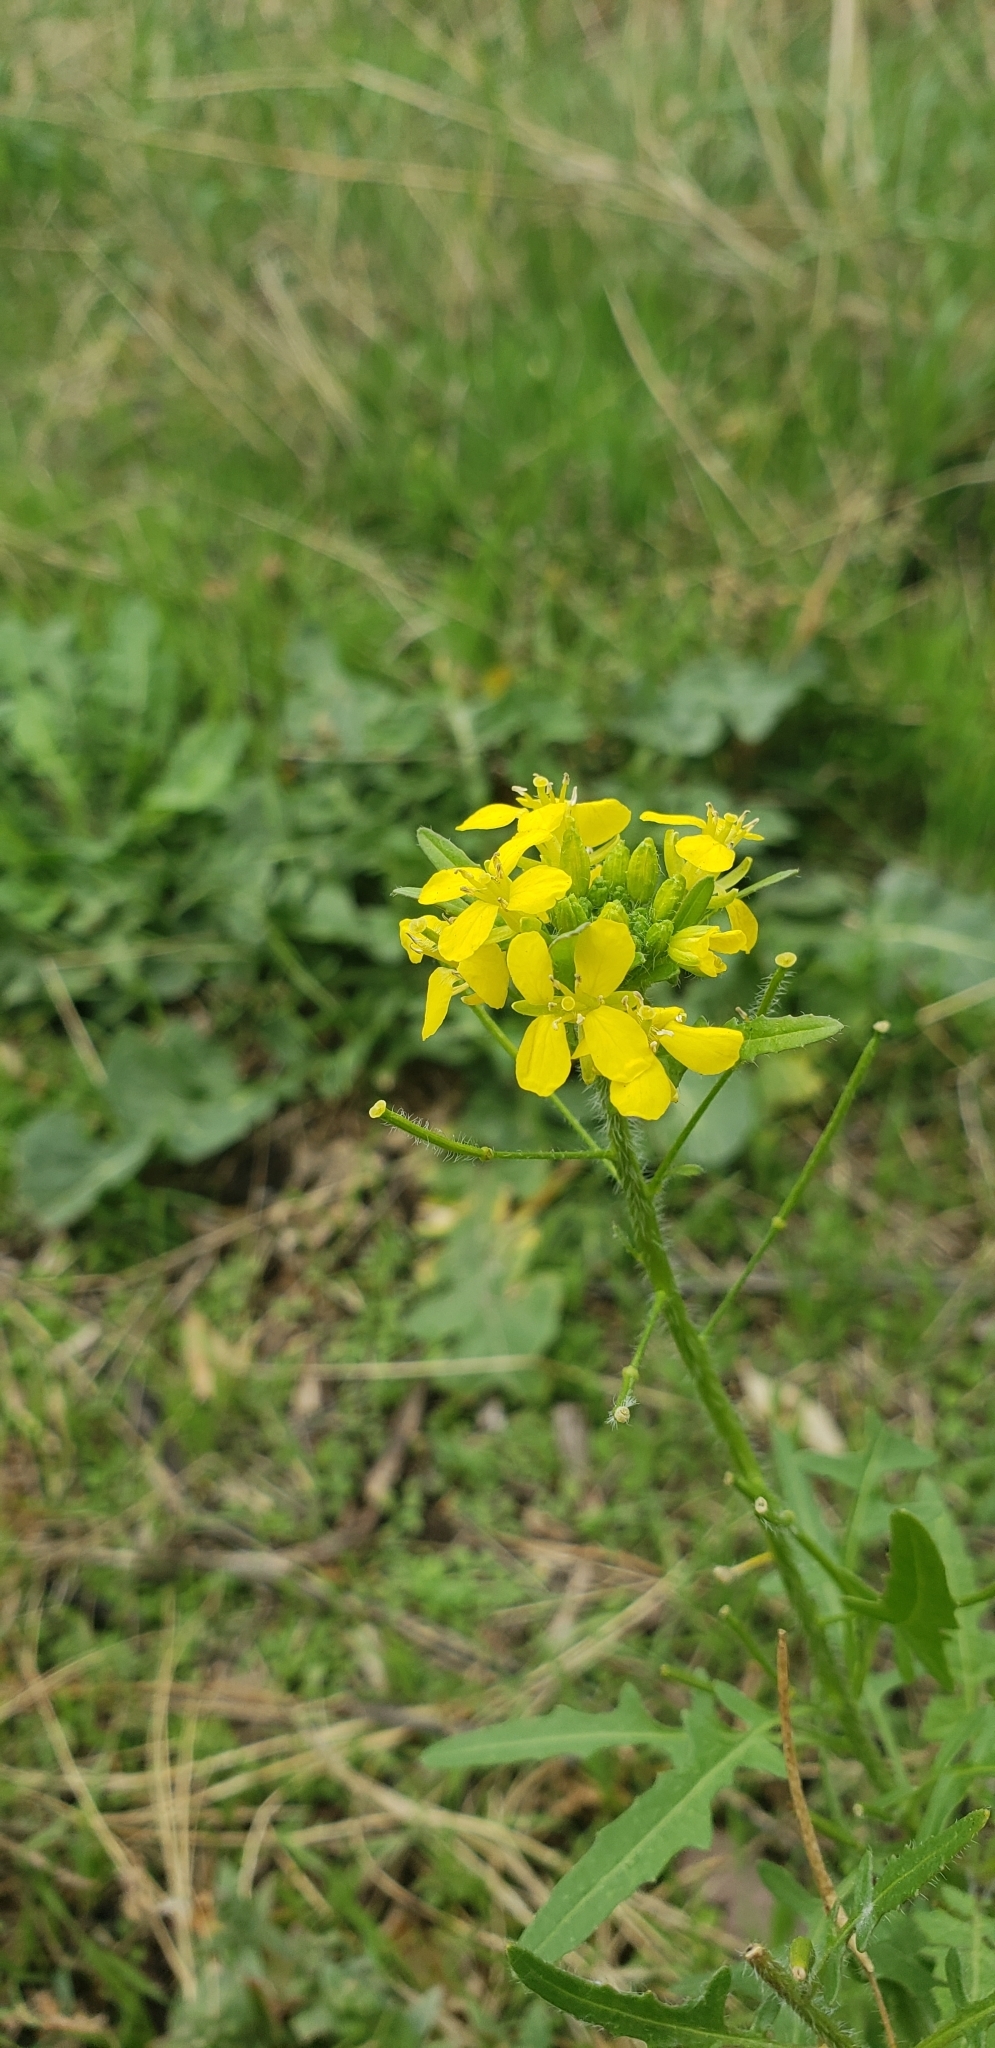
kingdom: Plantae
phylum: Tracheophyta
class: Magnoliopsida
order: Brassicales
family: Brassicaceae
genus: Sisymbrium
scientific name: Sisymbrium loeselii
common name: False london-rocket
